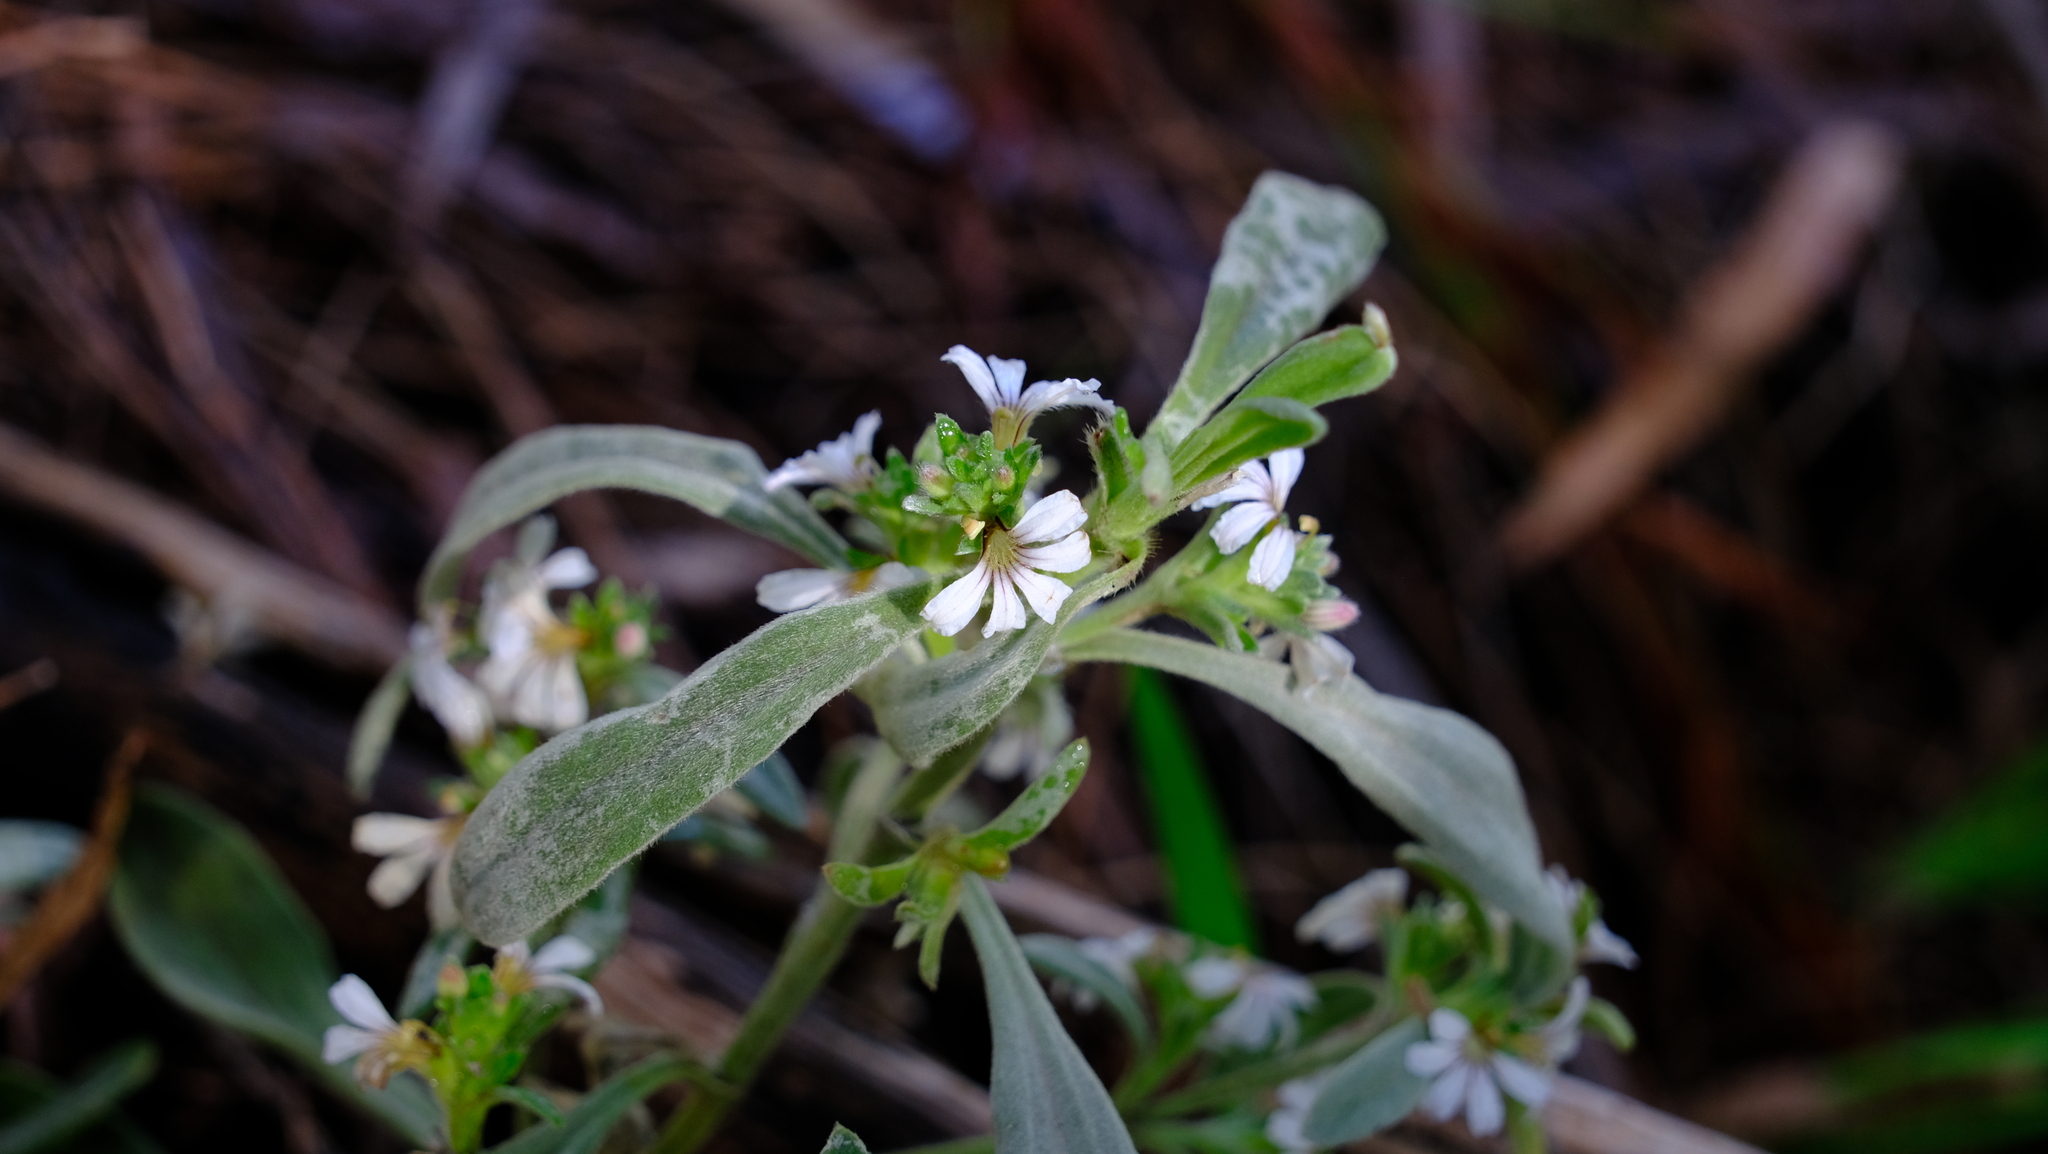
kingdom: Plantae
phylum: Tracheophyta
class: Magnoliopsida
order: Asterales
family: Goodeniaceae
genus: Scaevola
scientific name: Scaevola canescens
